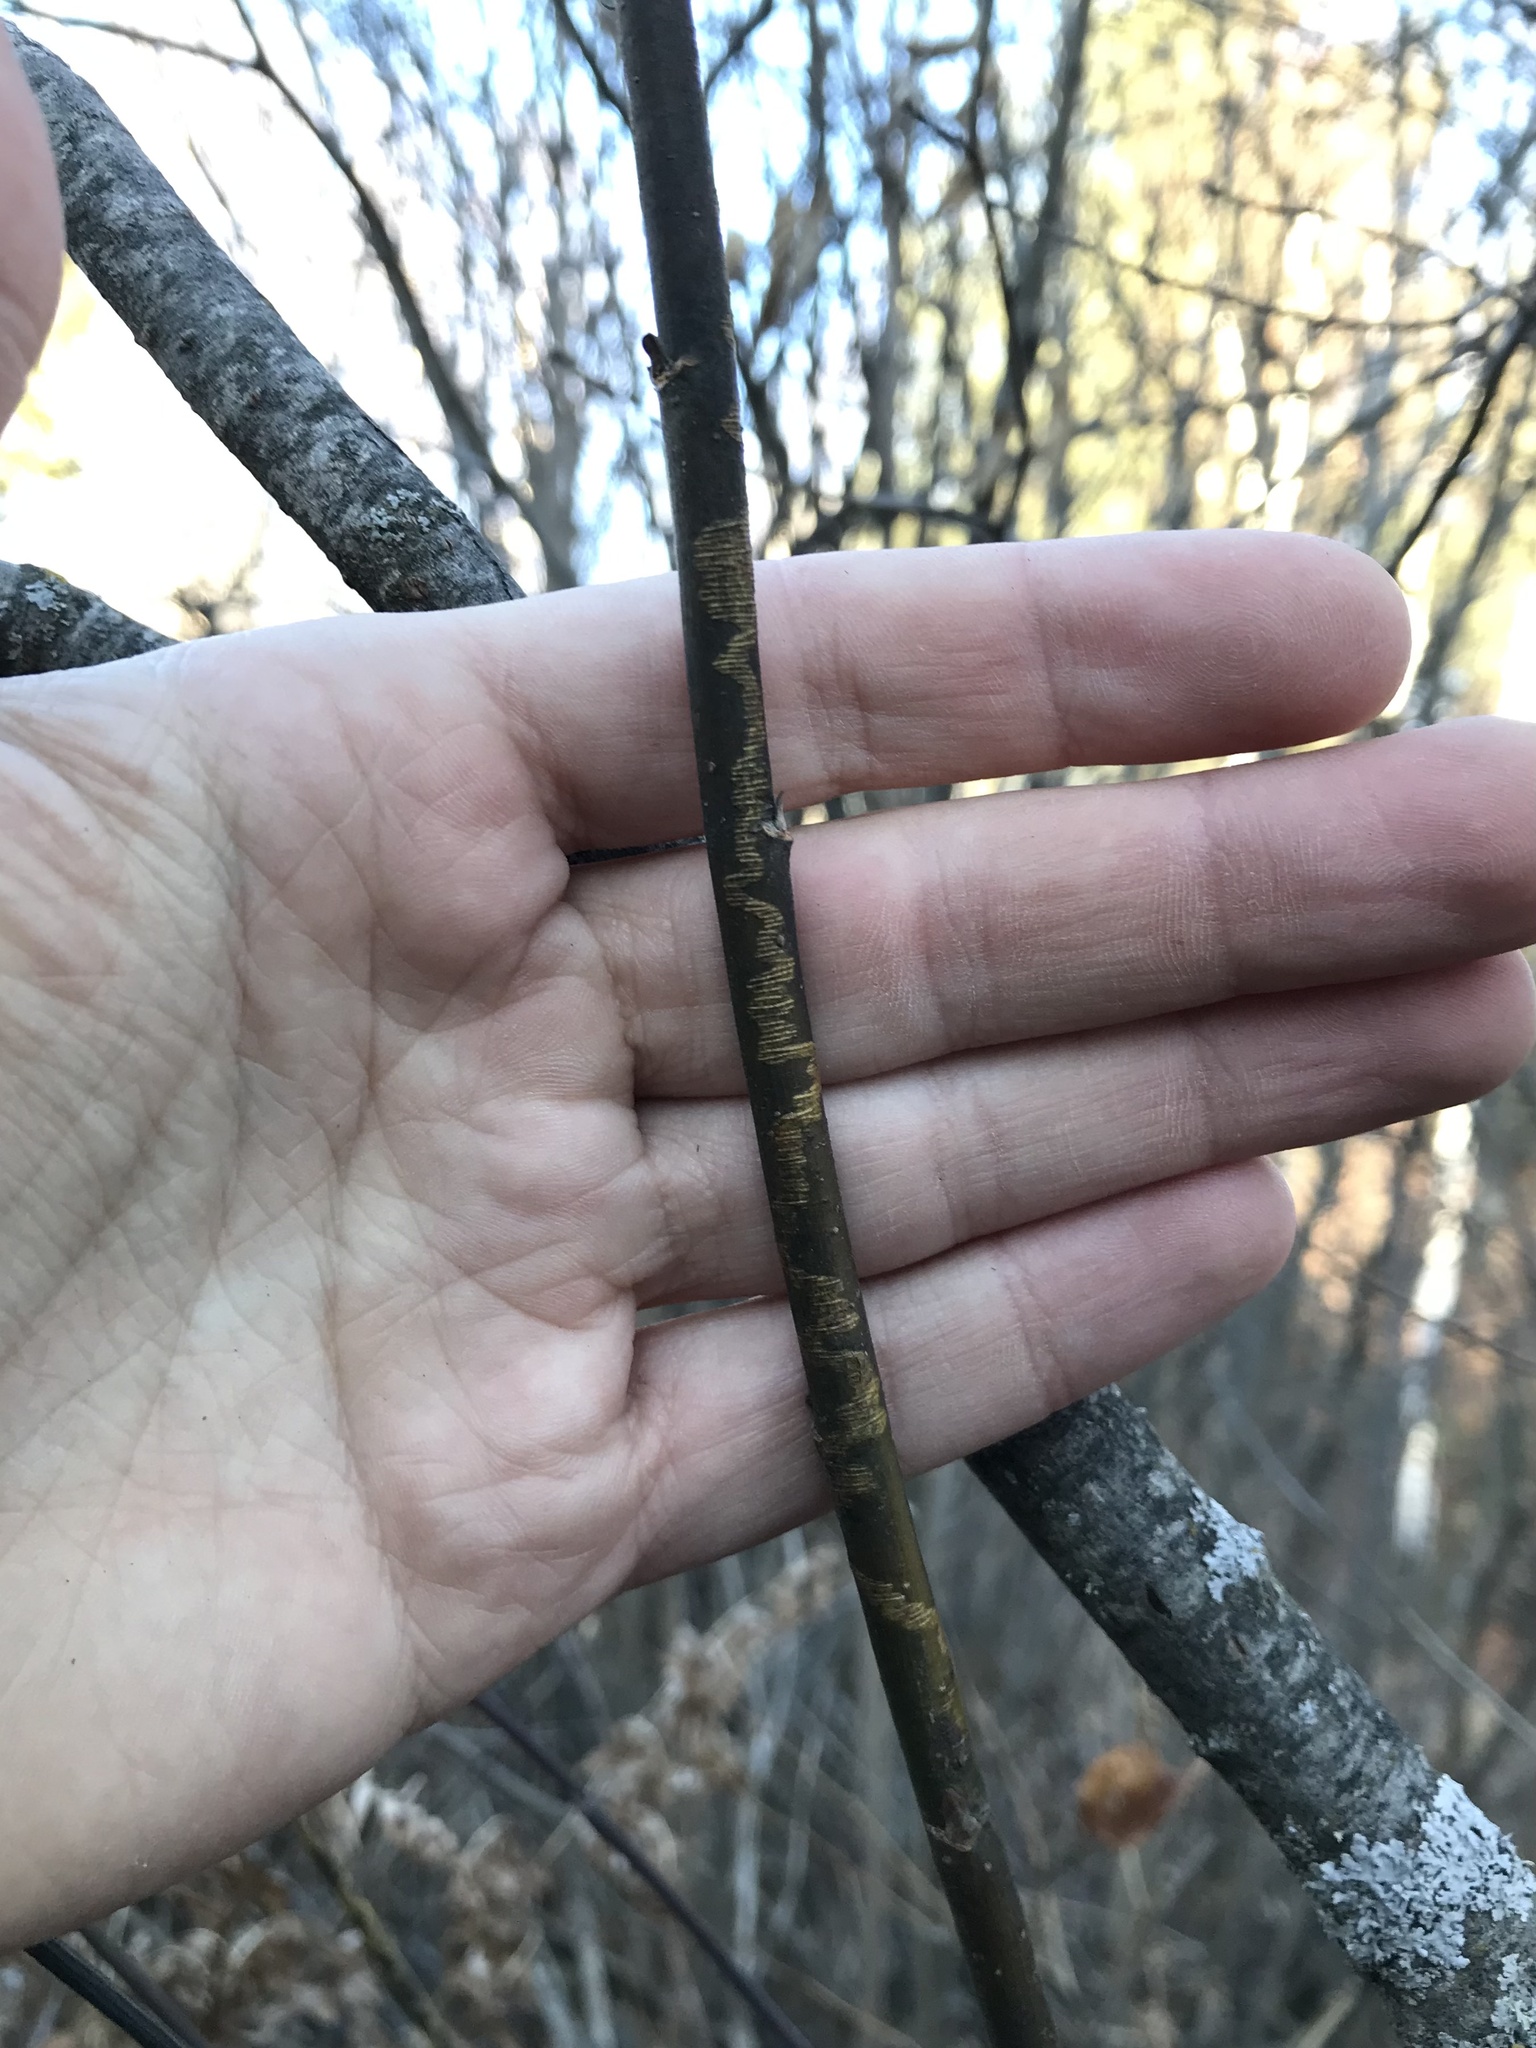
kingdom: Animalia
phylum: Arthropoda
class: Insecta
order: Lepidoptera
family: Gracillariidae
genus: Marmara
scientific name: Marmara salictella
